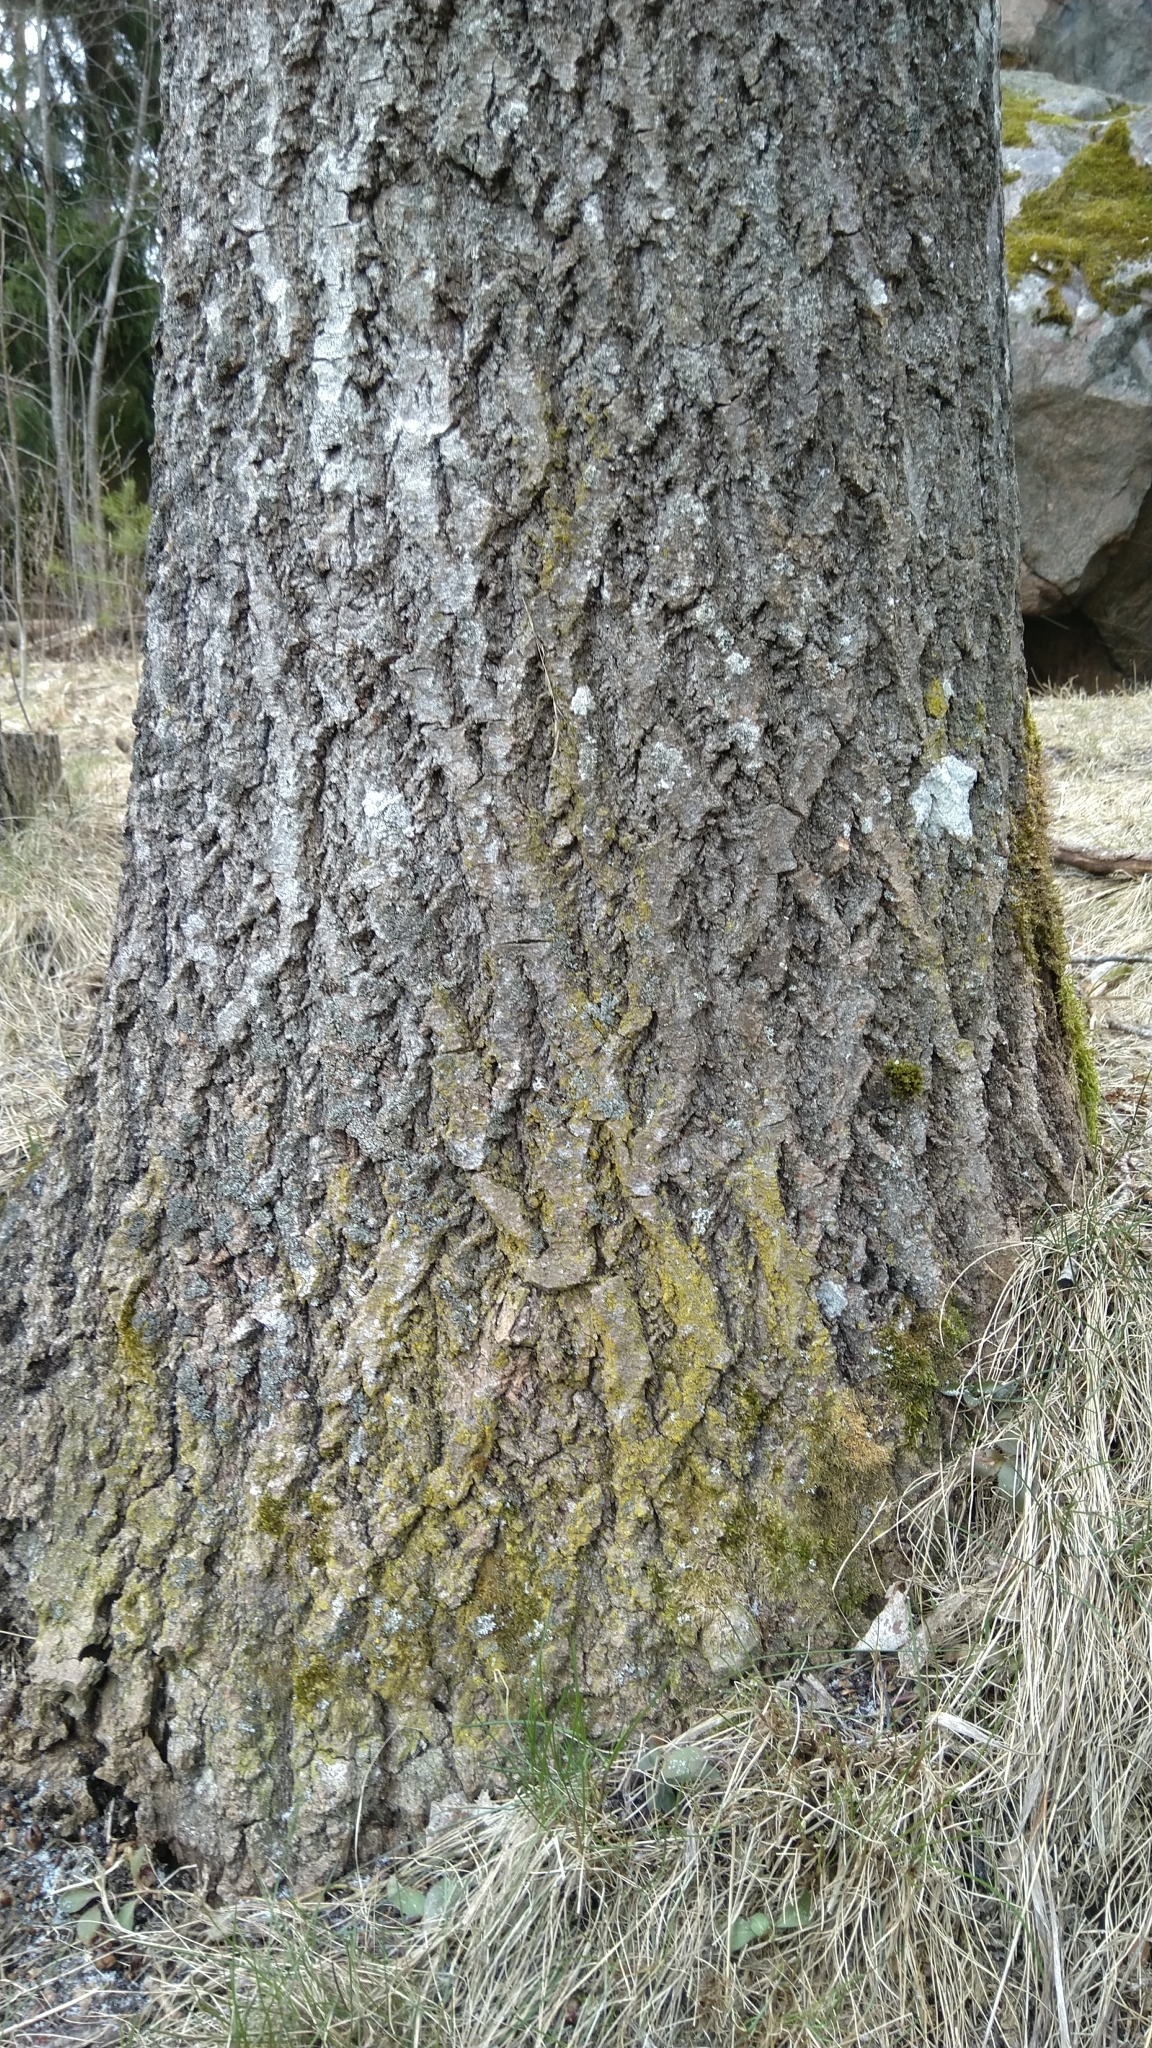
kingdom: Fungi
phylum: Ascomycota
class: Candelariomycetes
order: Candelariales
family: Candelariaceae
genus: Candelariella
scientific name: Candelariella xanthostigma
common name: Granular goldspeck lichen
